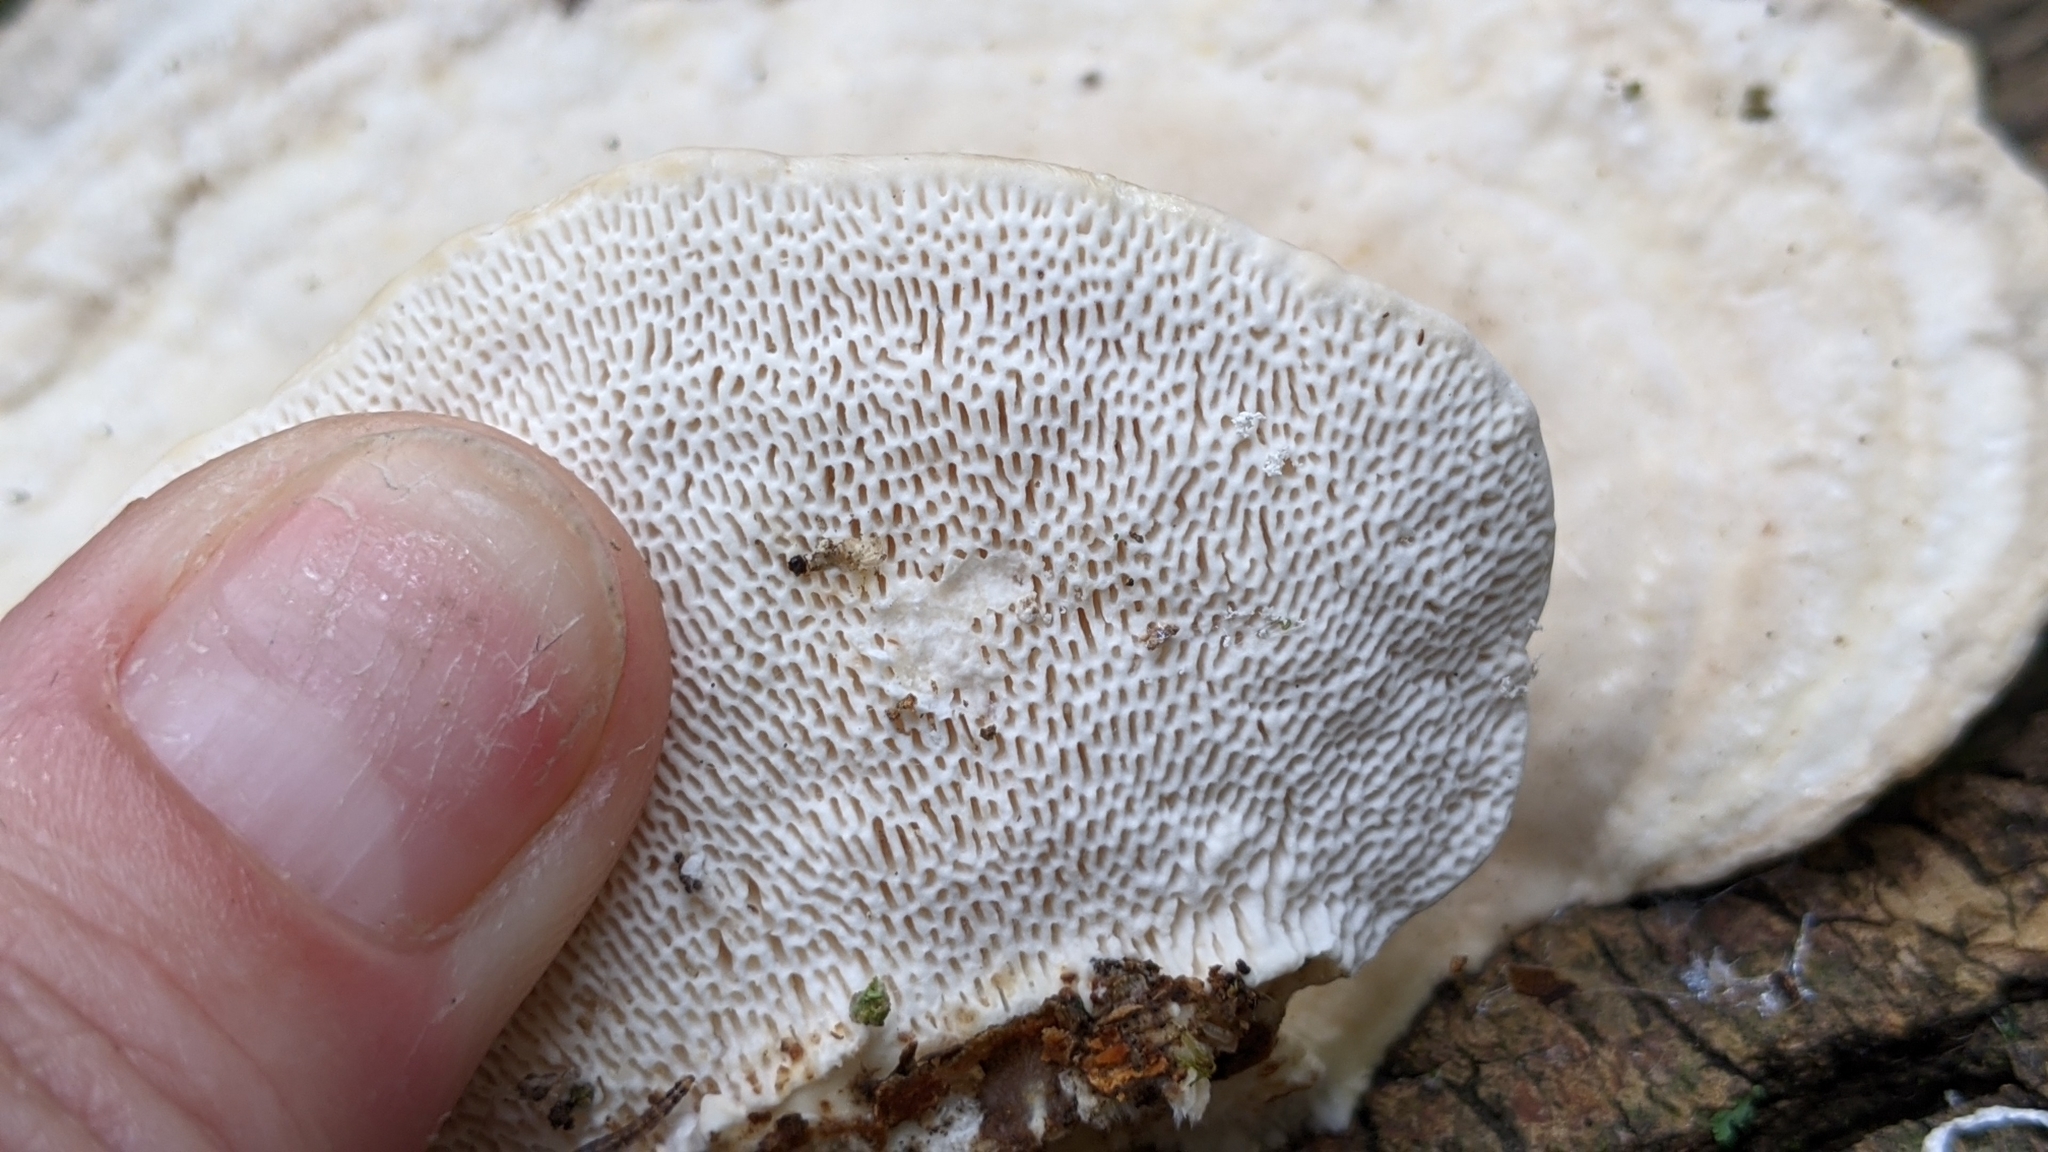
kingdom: Fungi
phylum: Basidiomycota
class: Agaricomycetes
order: Polyporales
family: Polyporaceae
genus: Trametes
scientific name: Trametes gibbosa
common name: Lumpy bracket
